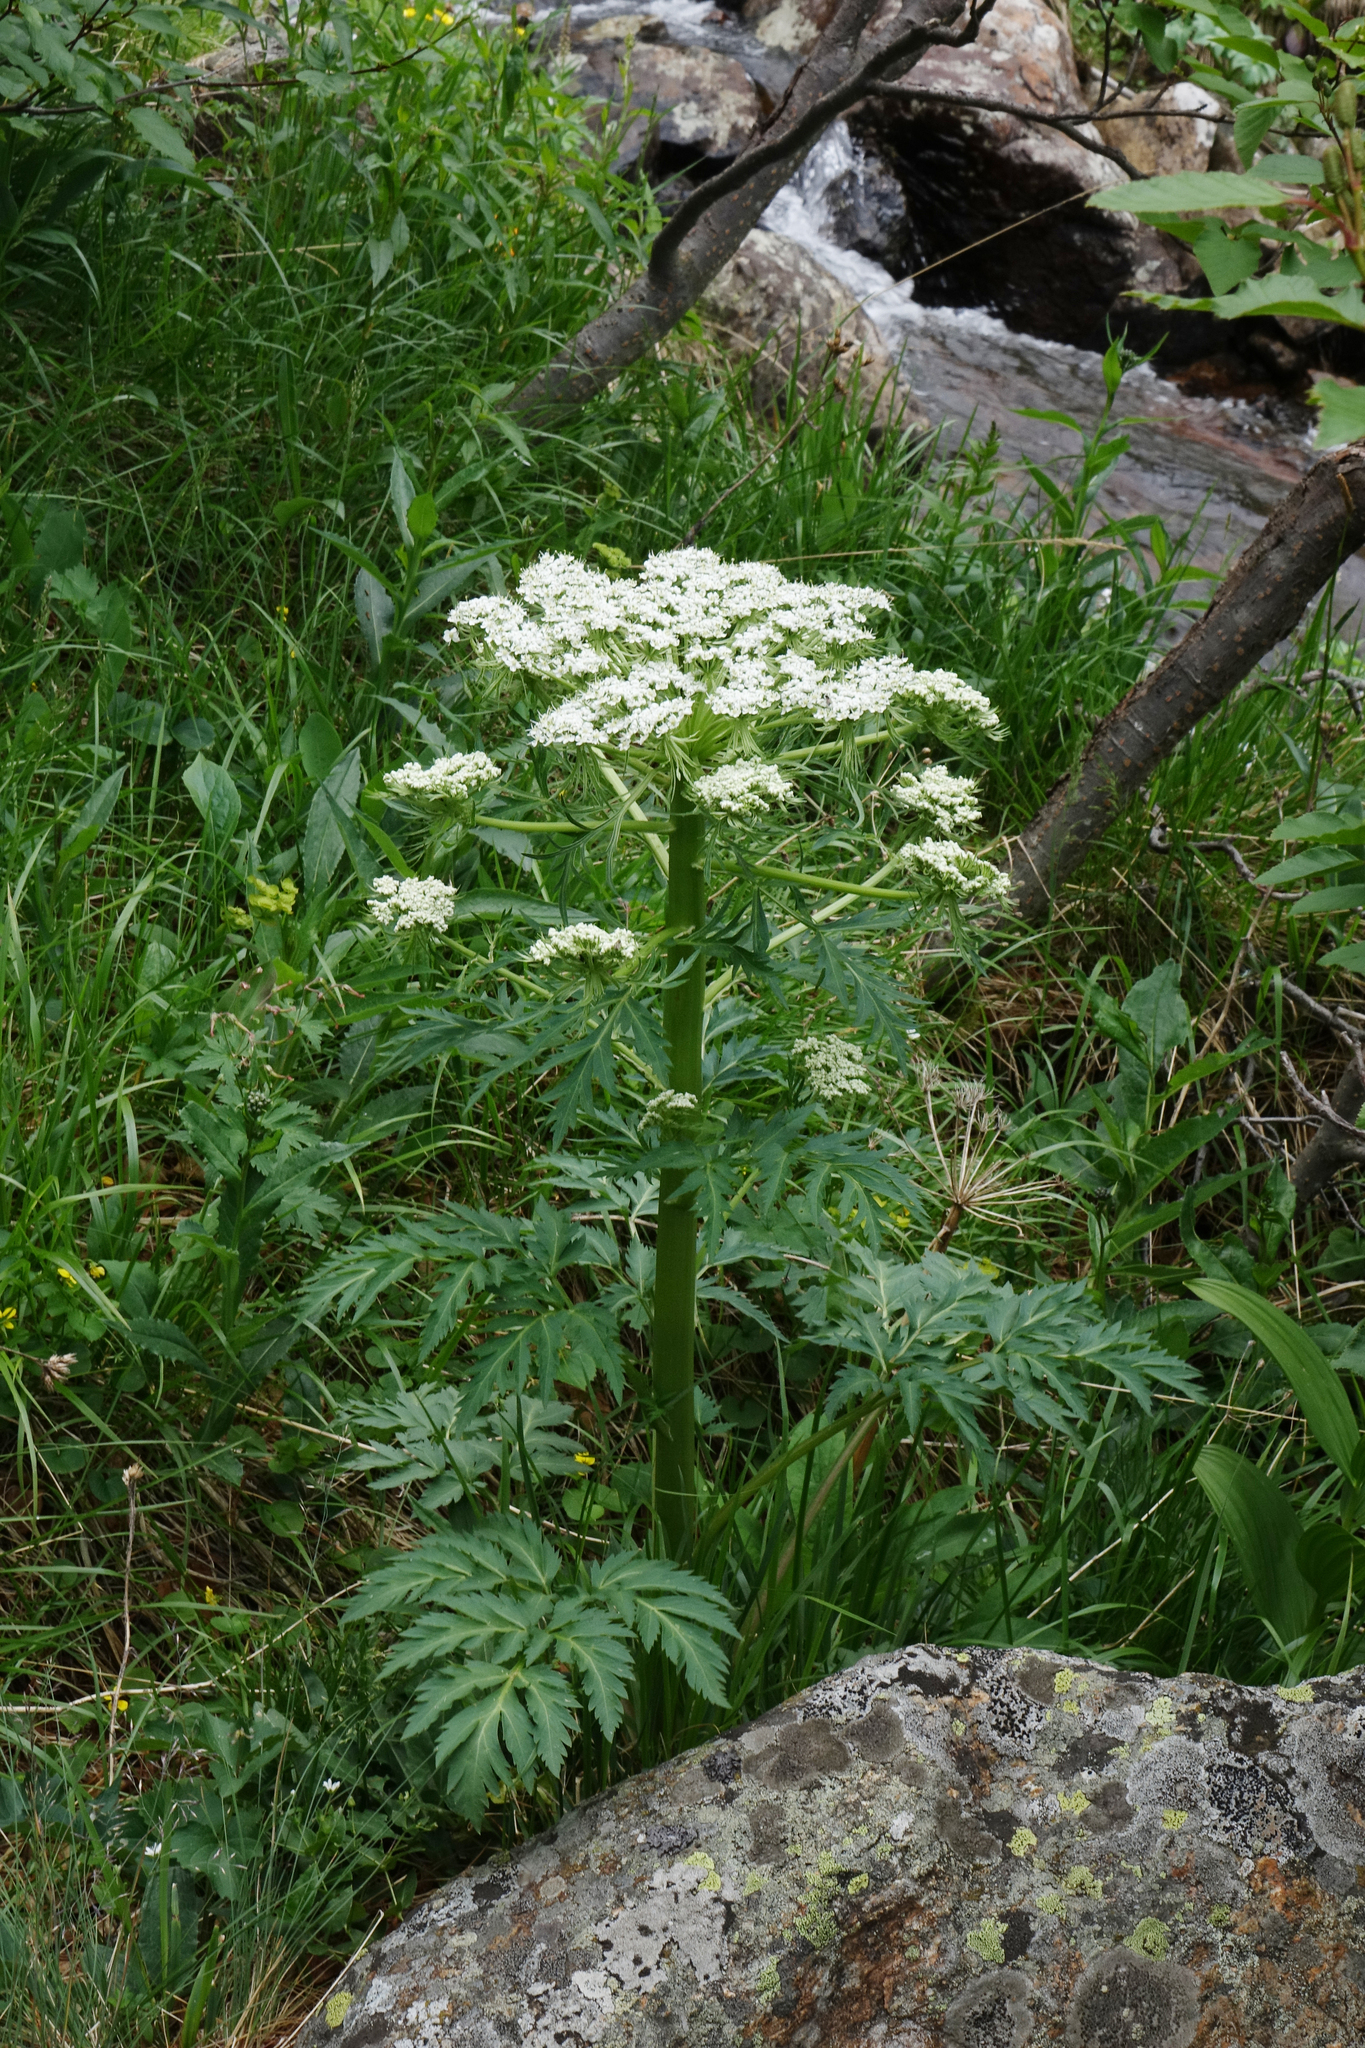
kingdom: Plantae
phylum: Tracheophyta
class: Magnoliopsida
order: Apiales
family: Apiaceae
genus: Pleurospermum
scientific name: Pleurospermum uralense
